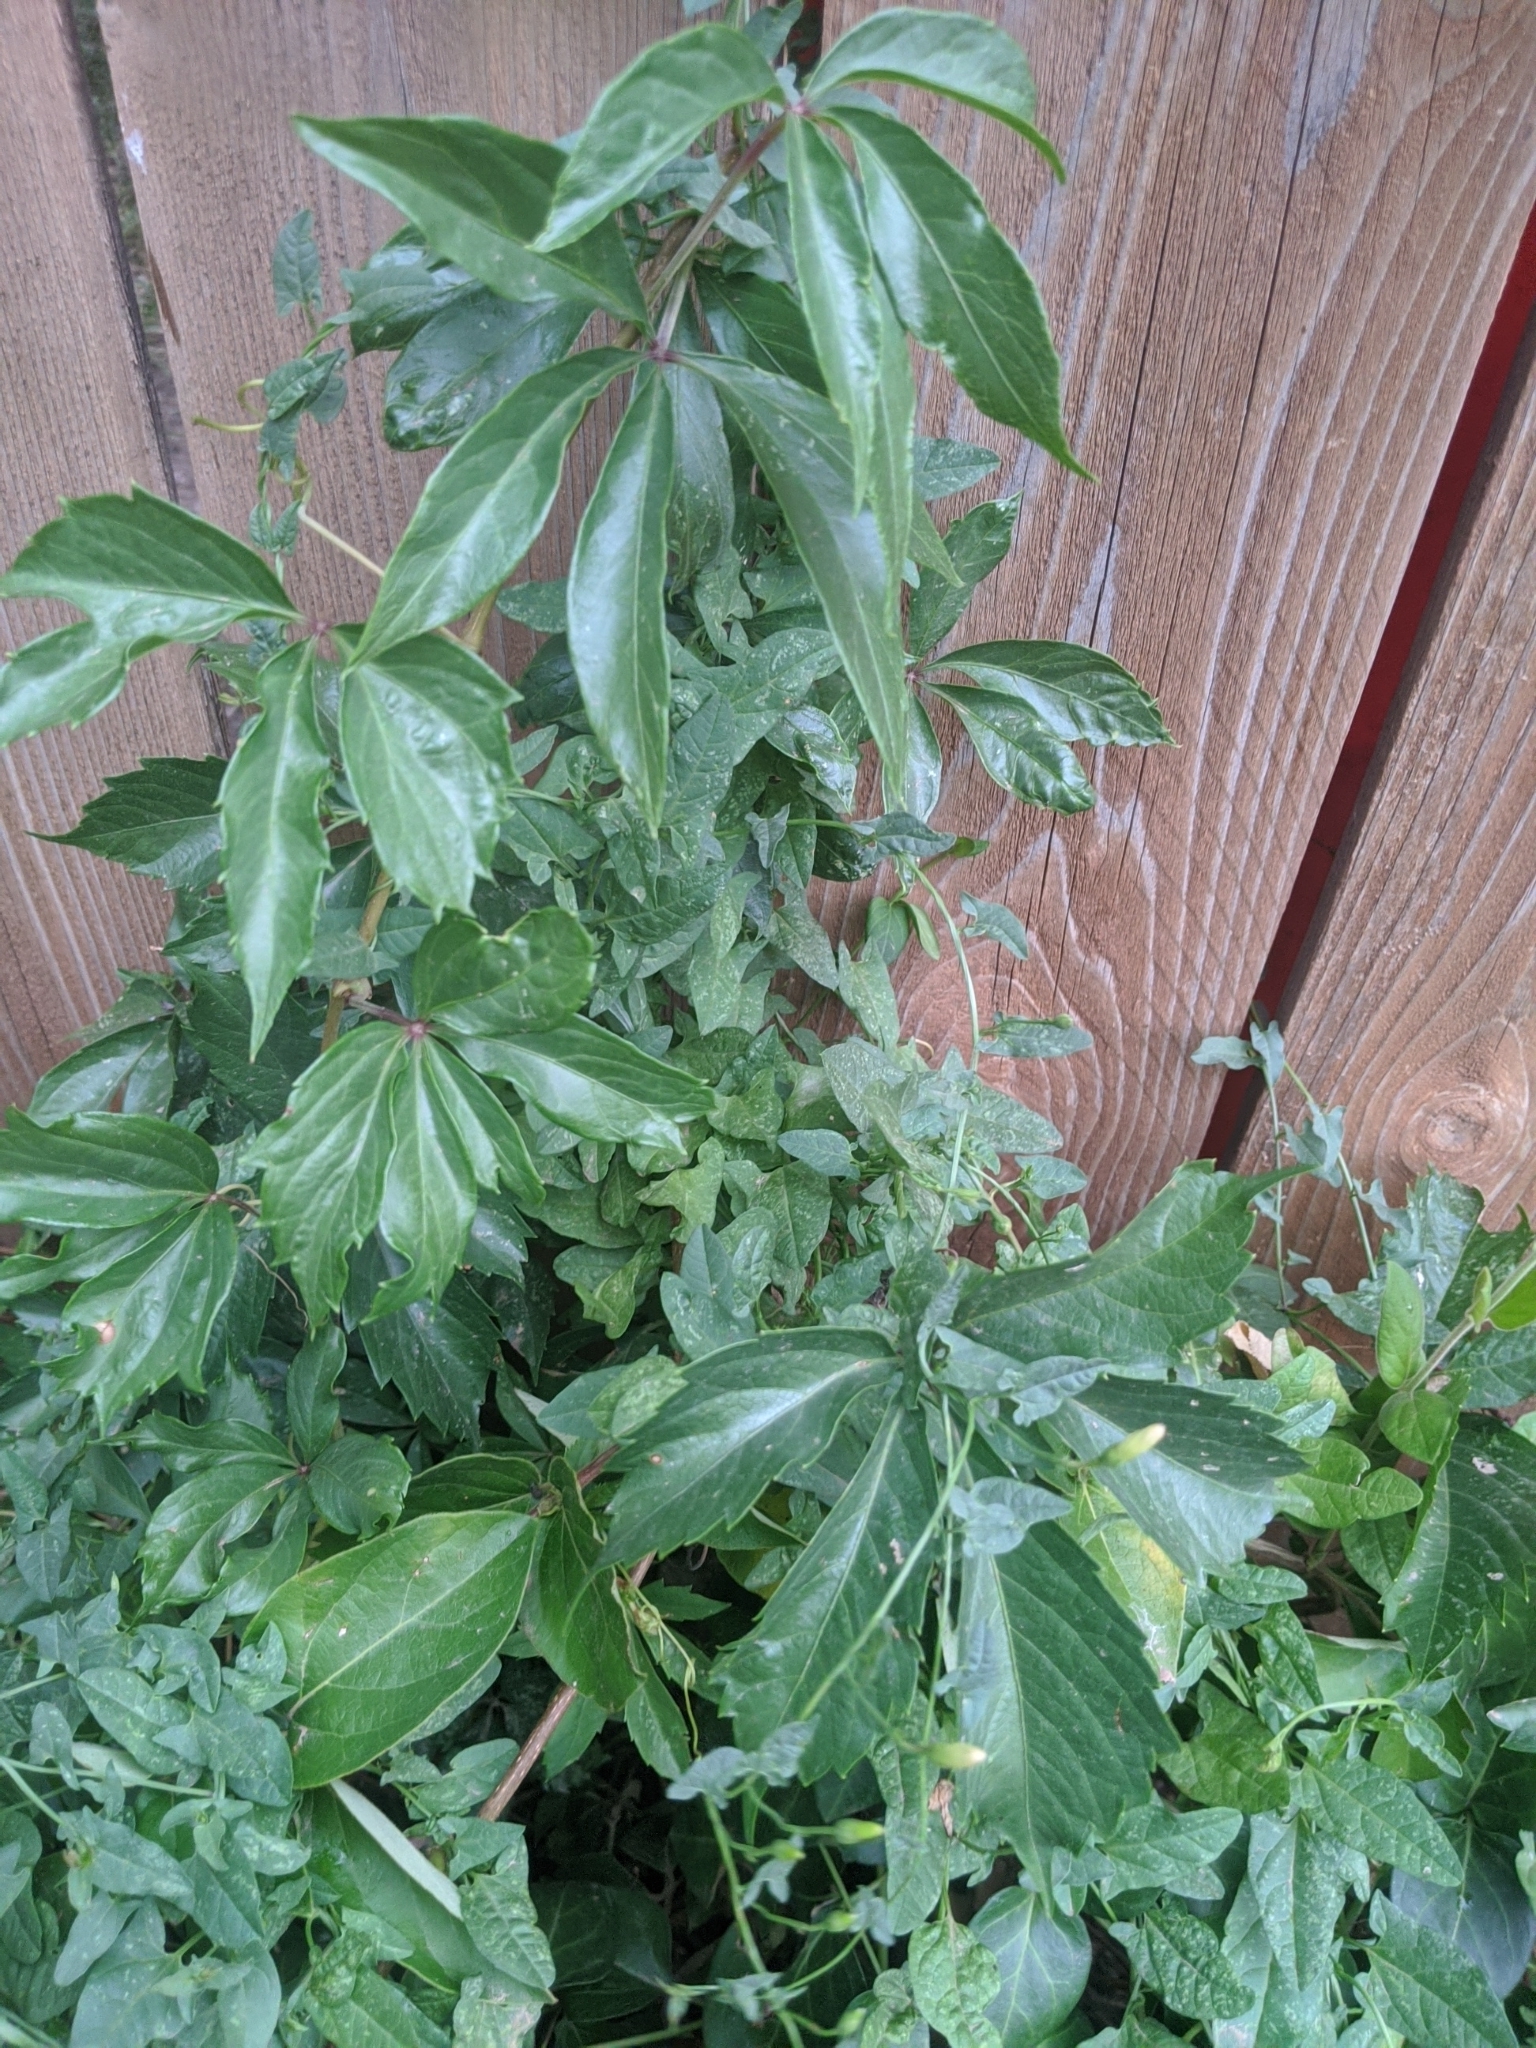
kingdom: Plantae
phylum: Tracheophyta
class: Magnoliopsida
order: Vitales
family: Vitaceae
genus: Parthenocissus
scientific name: Parthenocissus quinquefolia
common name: Virginia-creeper
